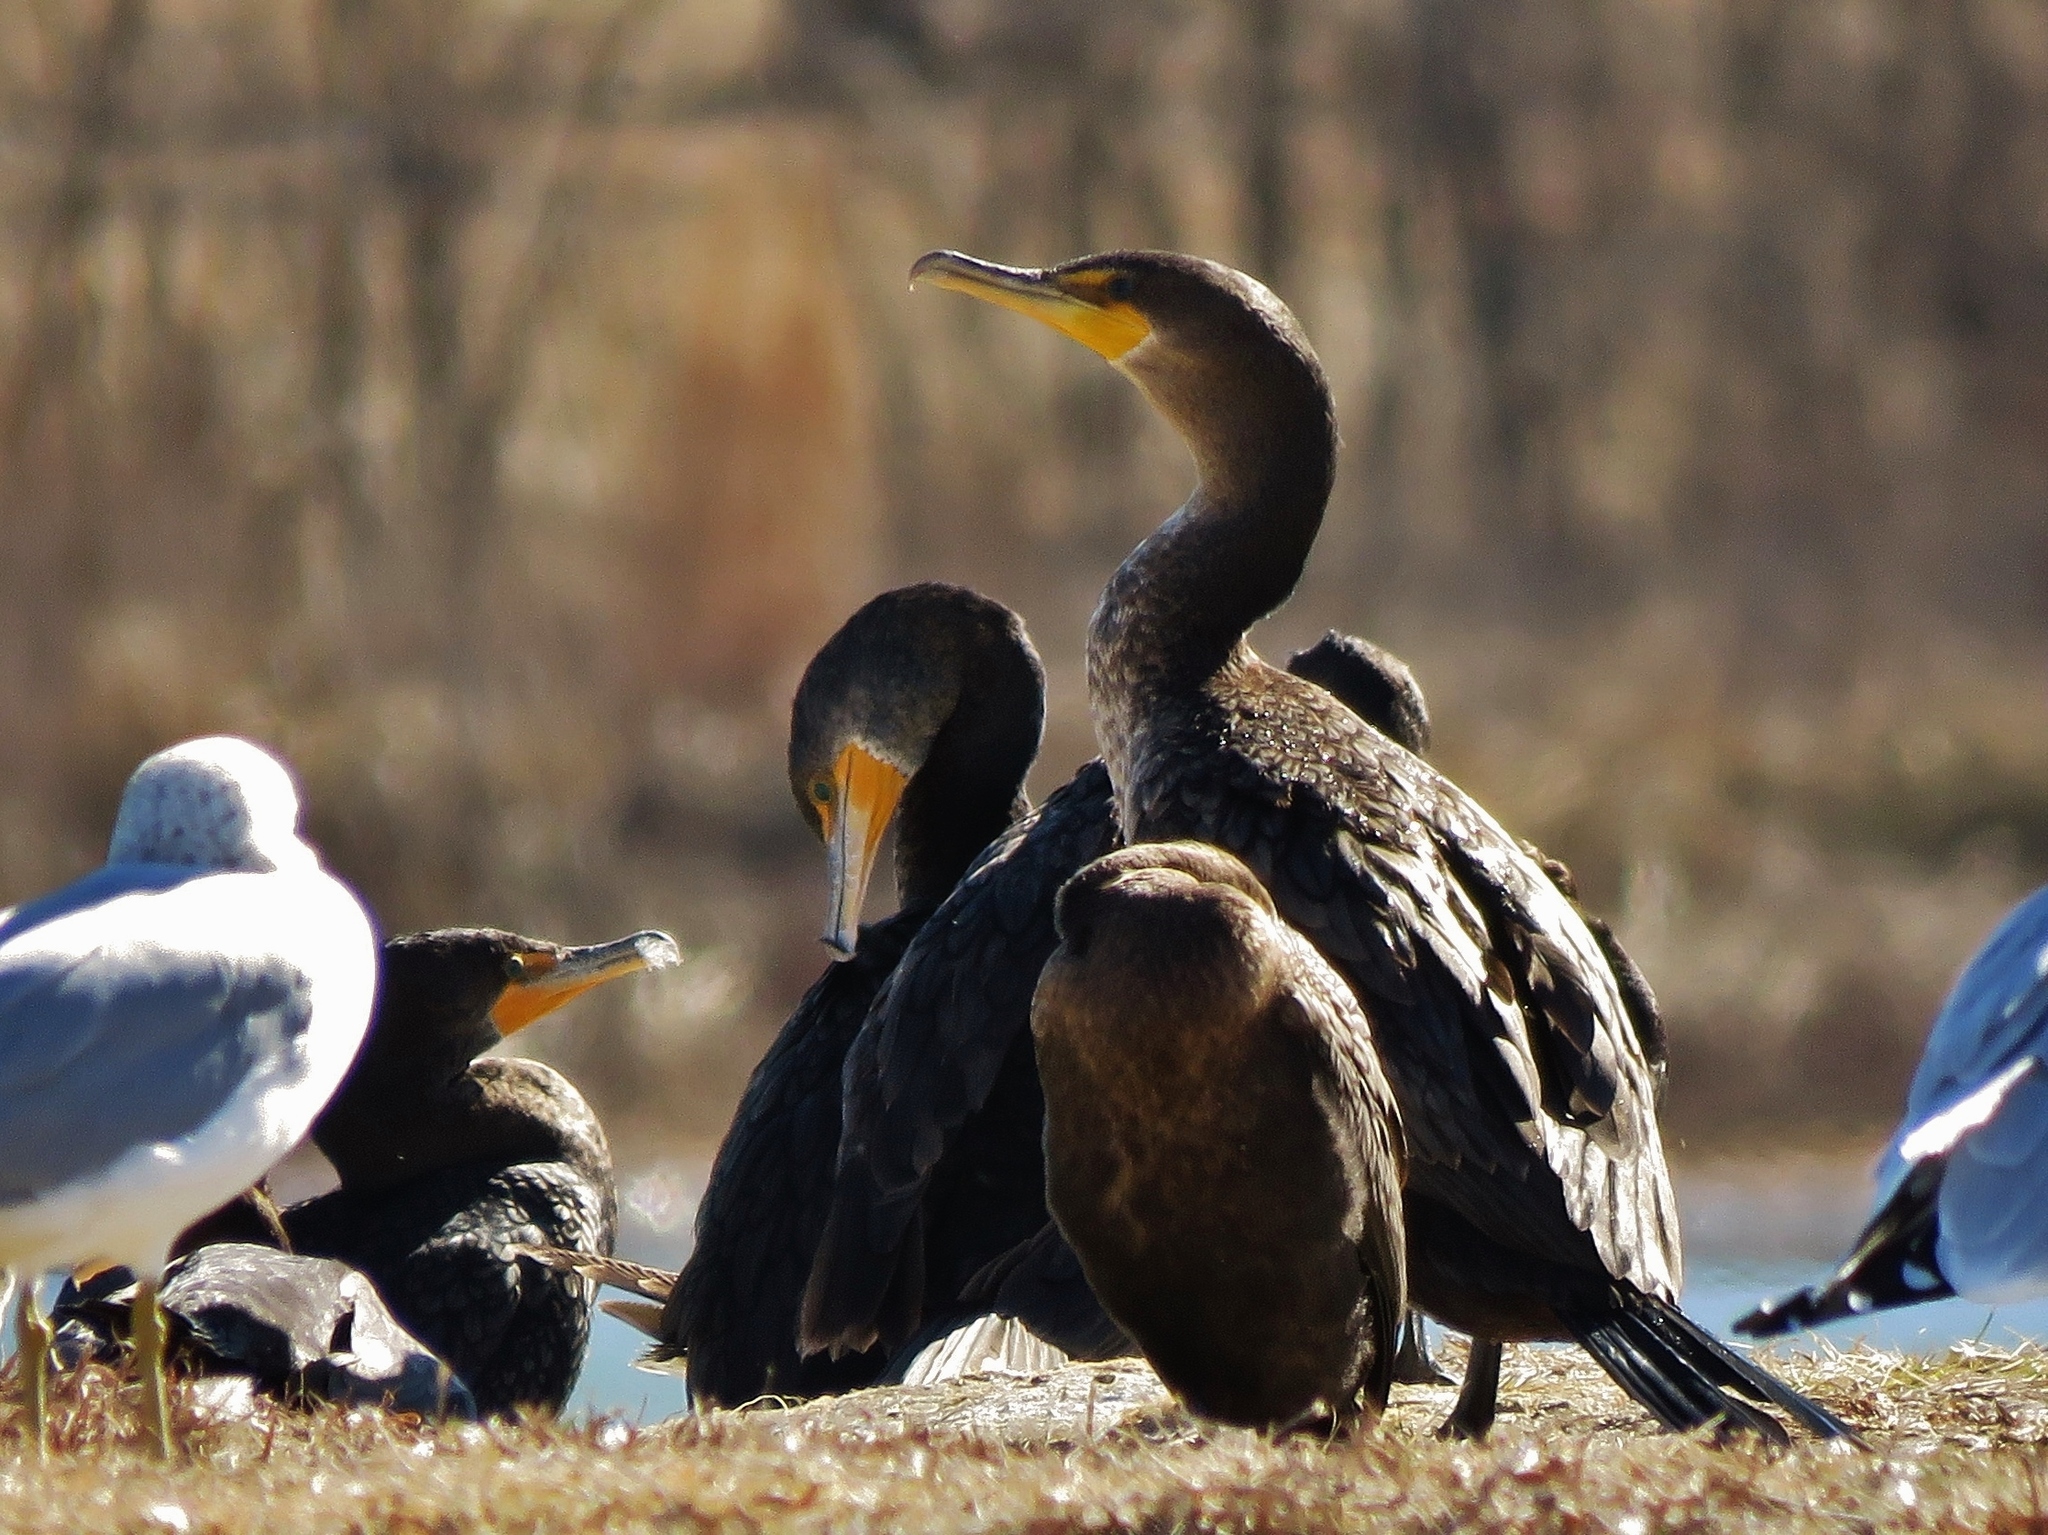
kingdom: Animalia
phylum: Chordata
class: Aves
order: Suliformes
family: Phalacrocoracidae
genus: Phalacrocorax
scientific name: Phalacrocorax auritus
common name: Double-crested cormorant
